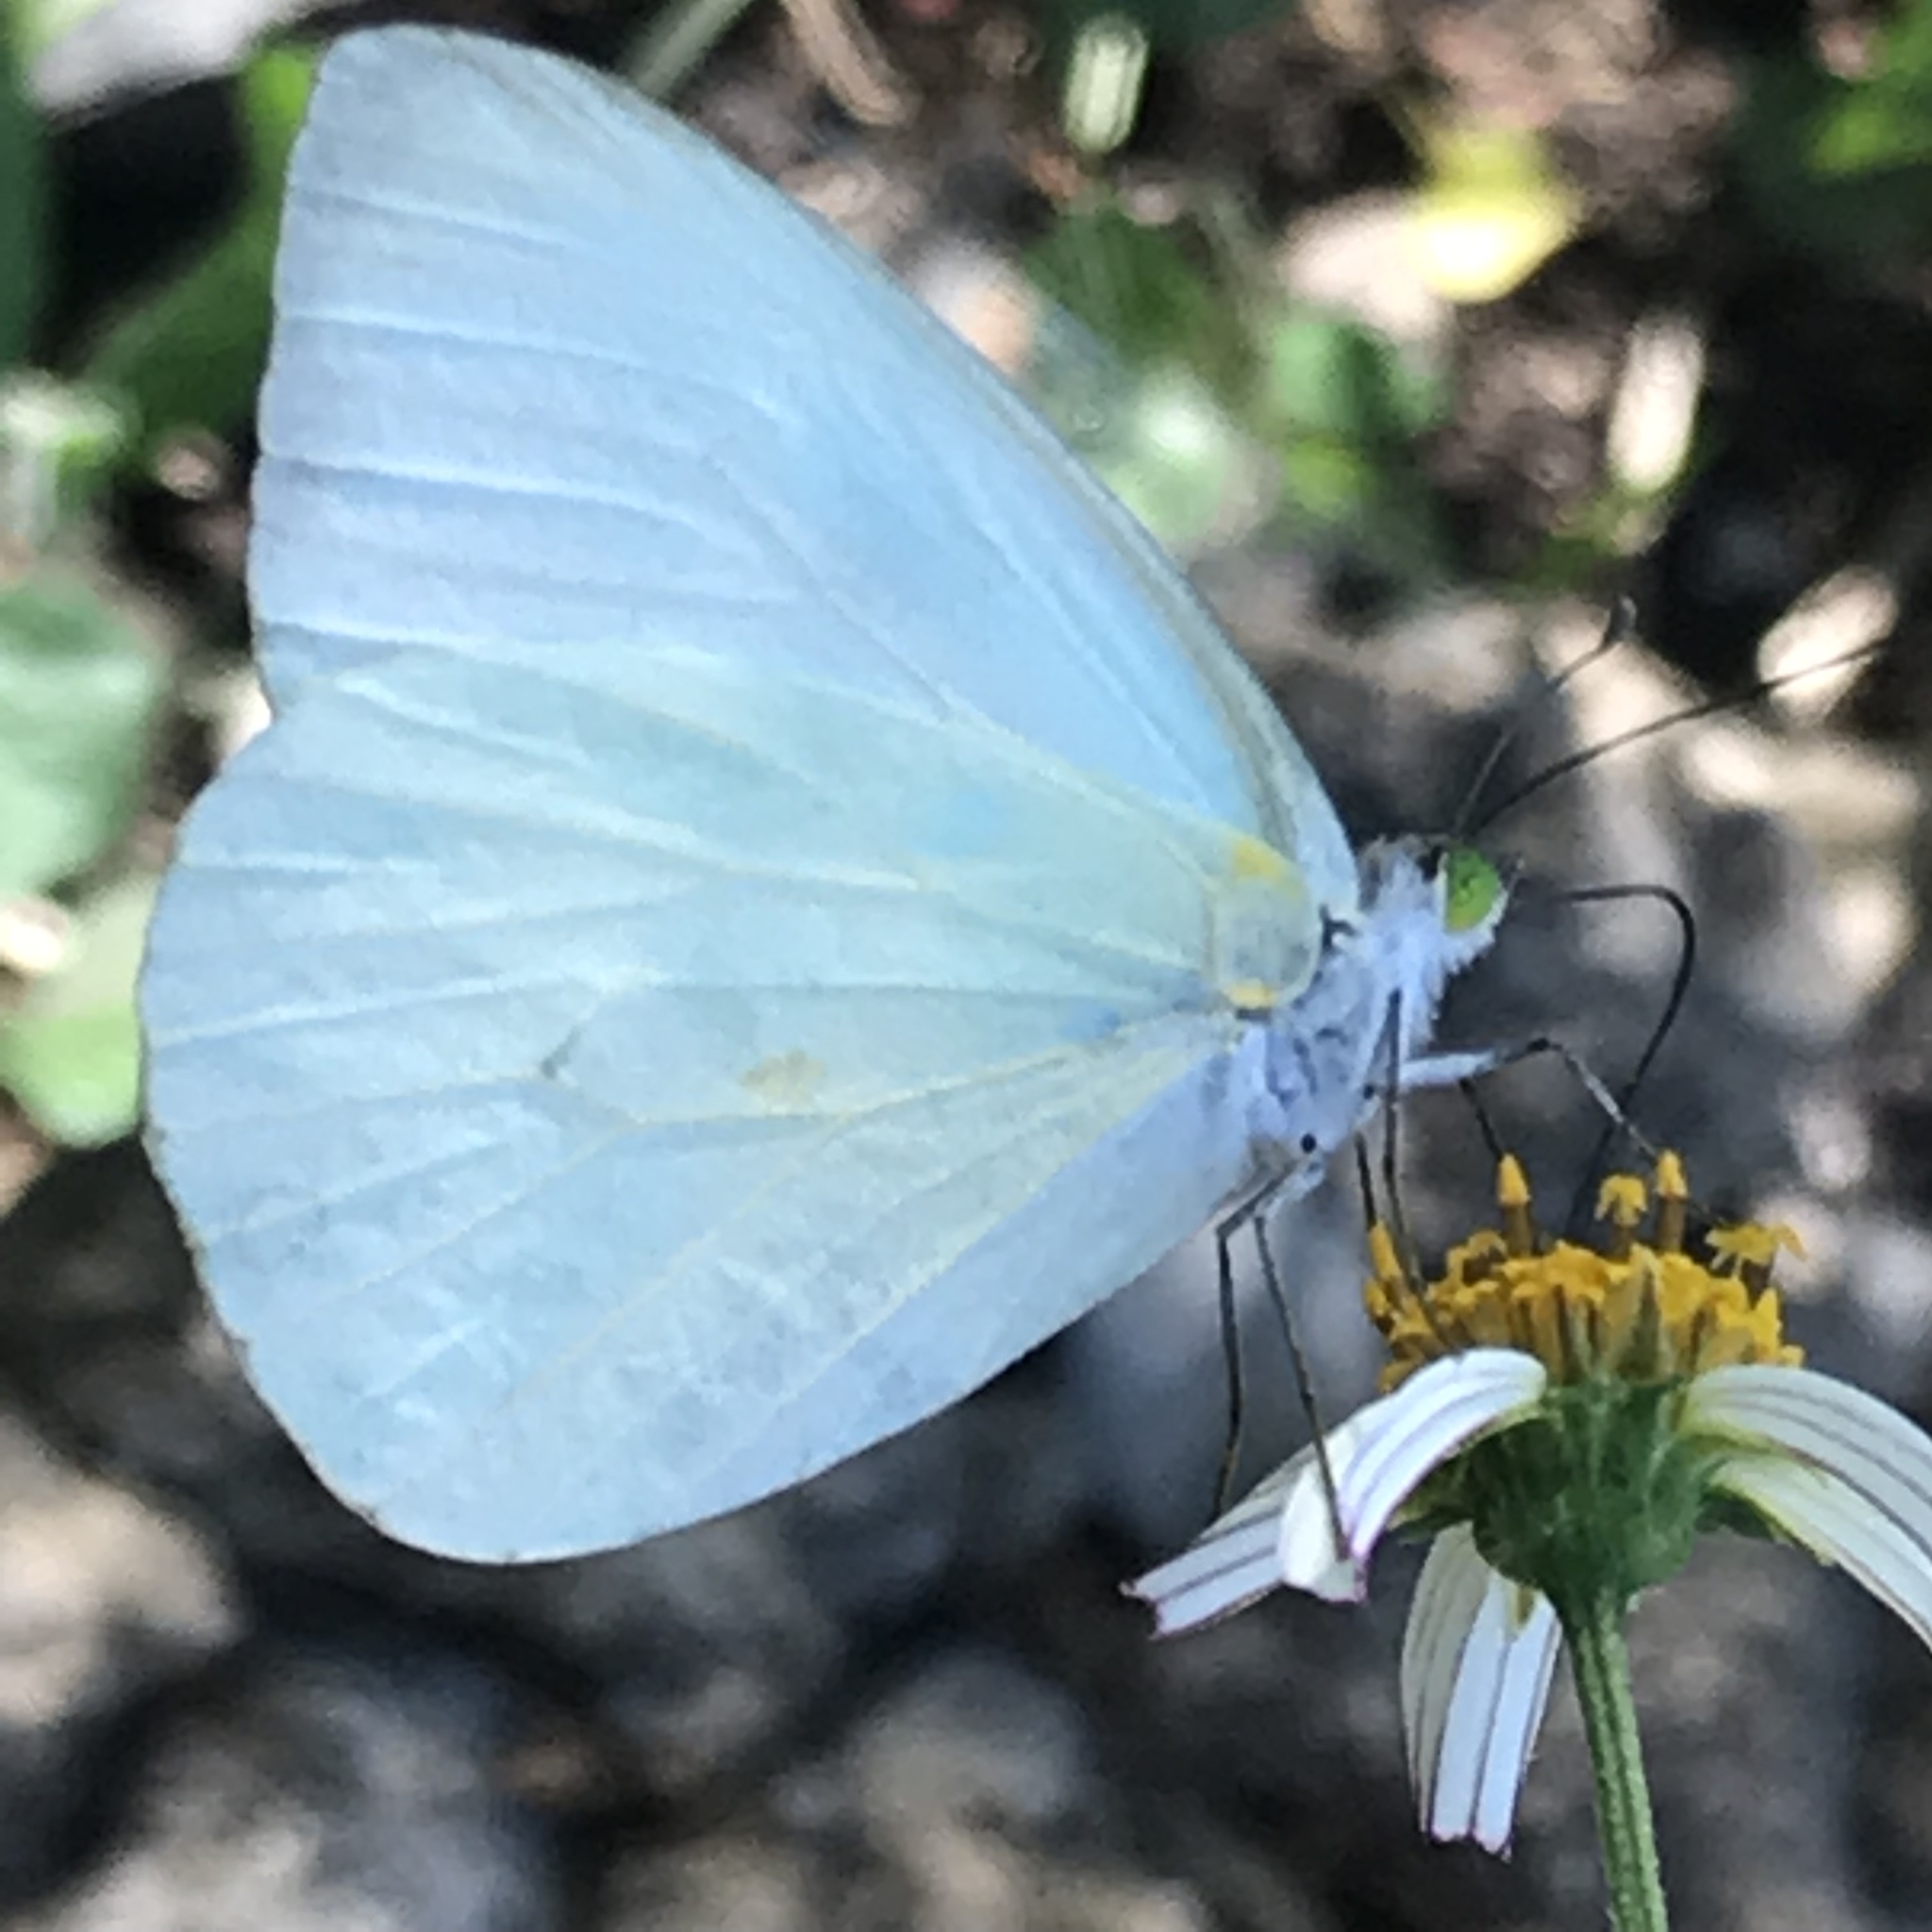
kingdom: Animalia
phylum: Arthropoda
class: Insecta
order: Lepidoptera
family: Pieridae
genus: Leptophobia
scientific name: Leptophobia aripa
